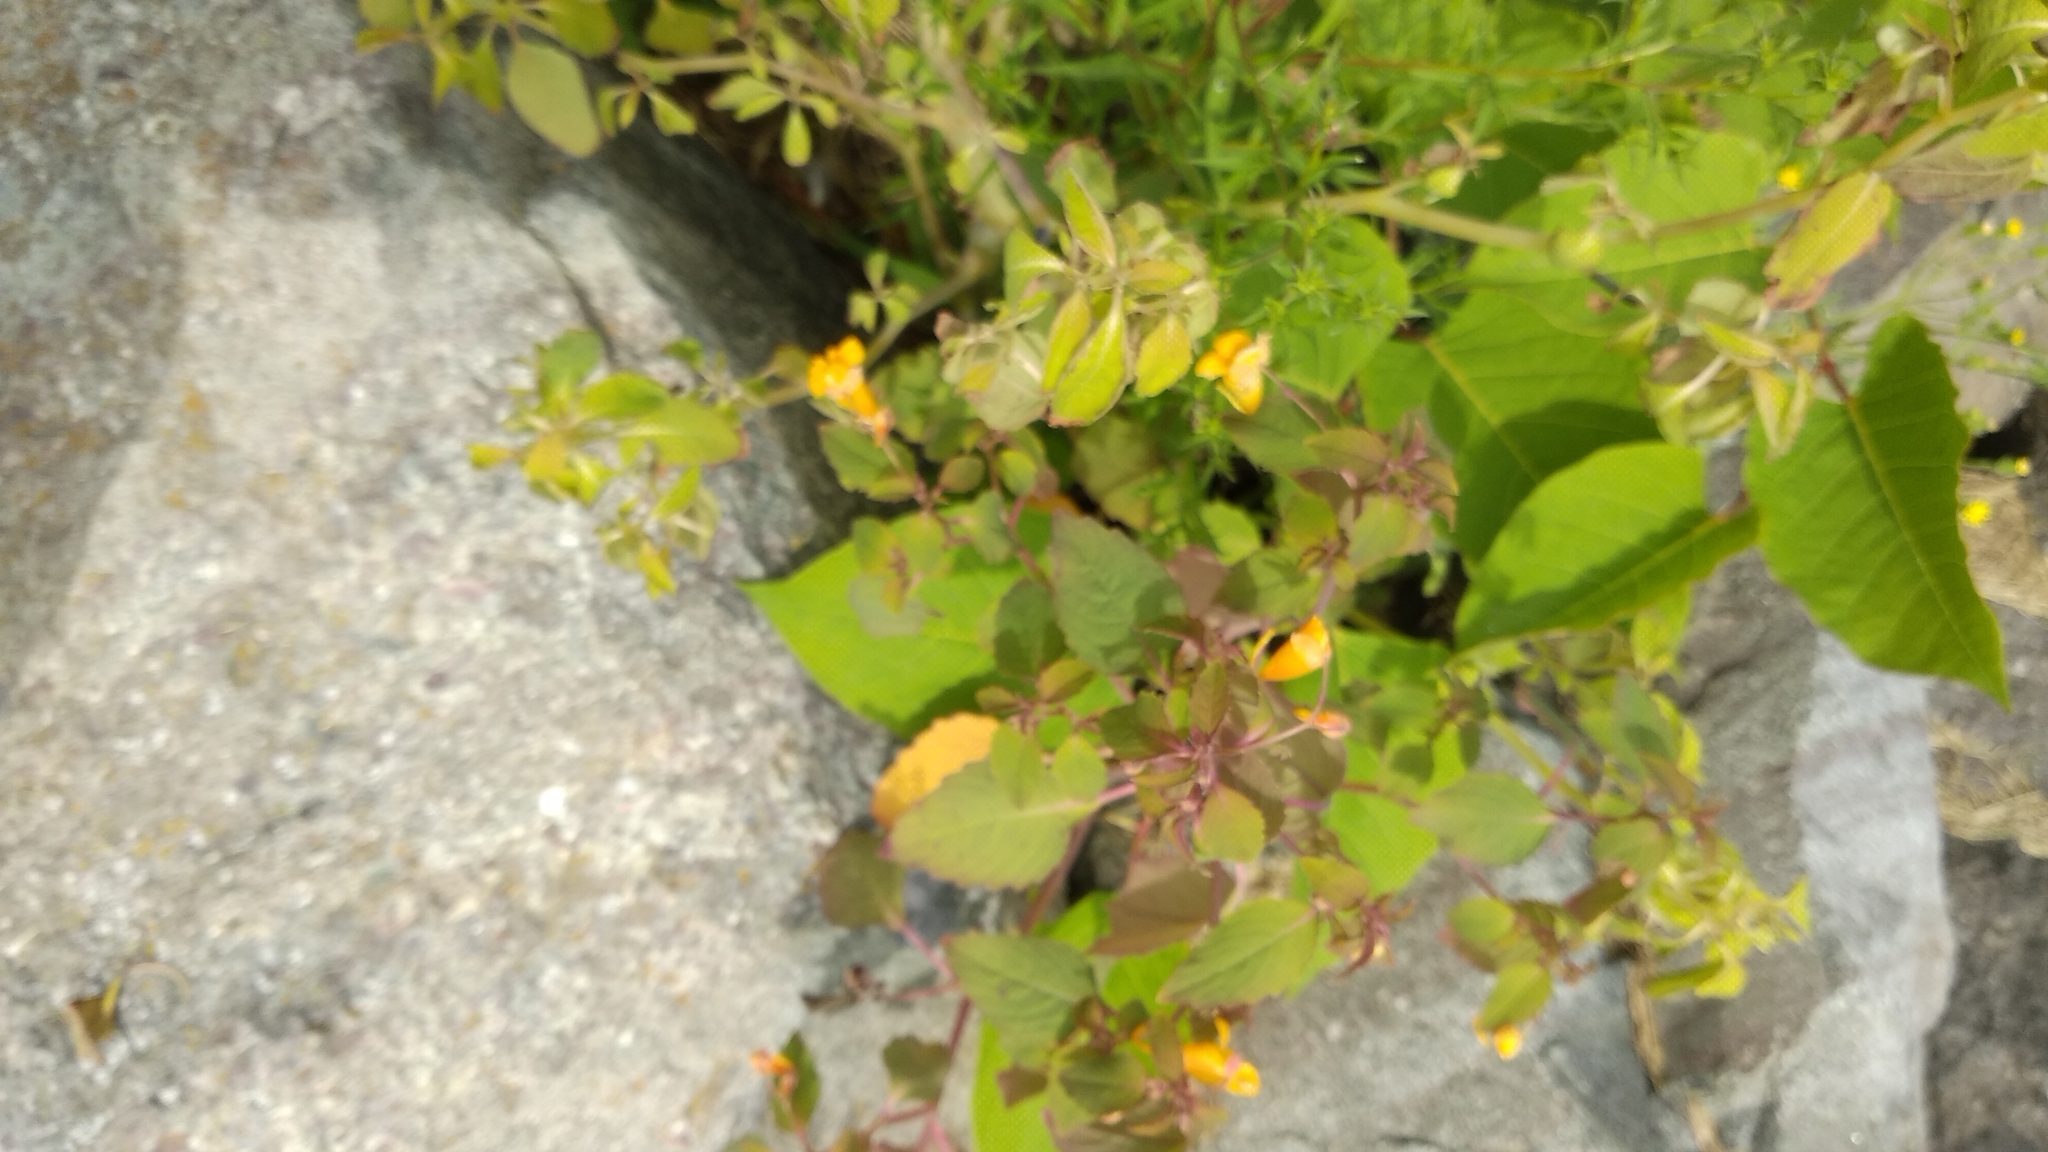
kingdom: Plantae
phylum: Tracheophyta
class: Magnoliopsida
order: Ericales
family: Balsaminaceae
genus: Impatiens
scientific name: Impatiens capensis
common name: Orange balsam
